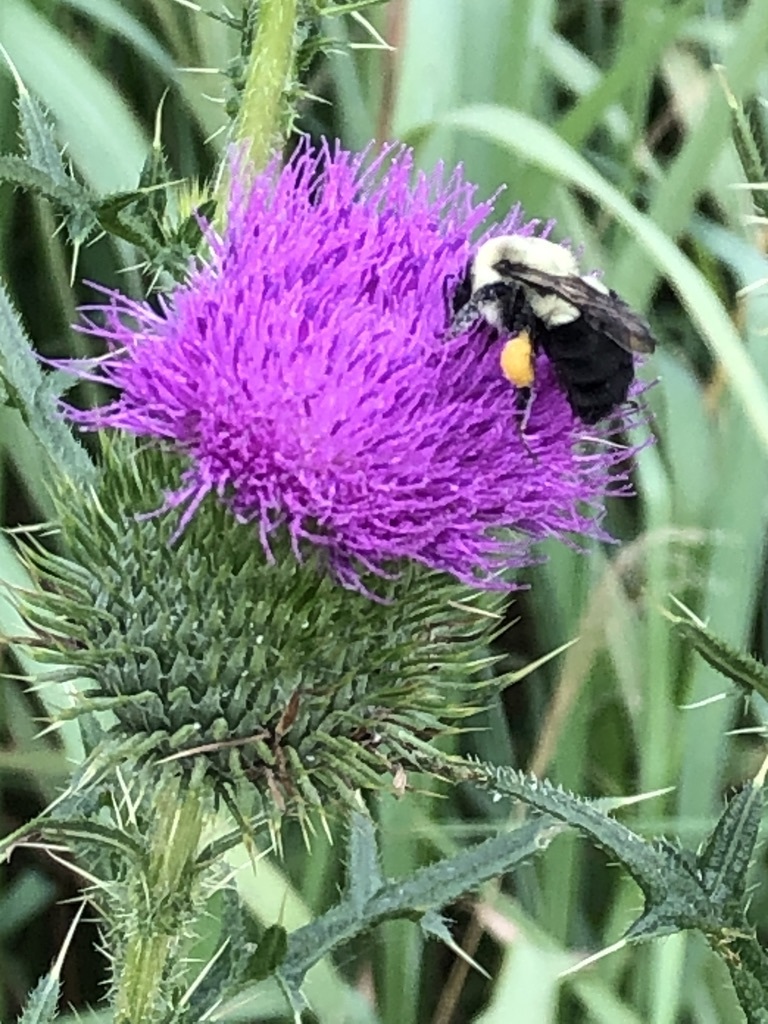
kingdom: Animalia
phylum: Arthropoda
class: Insecta
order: Hymenoptera
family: Apidae
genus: Bombus
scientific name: Bombus impatiens
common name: Common eastern bumble bee
